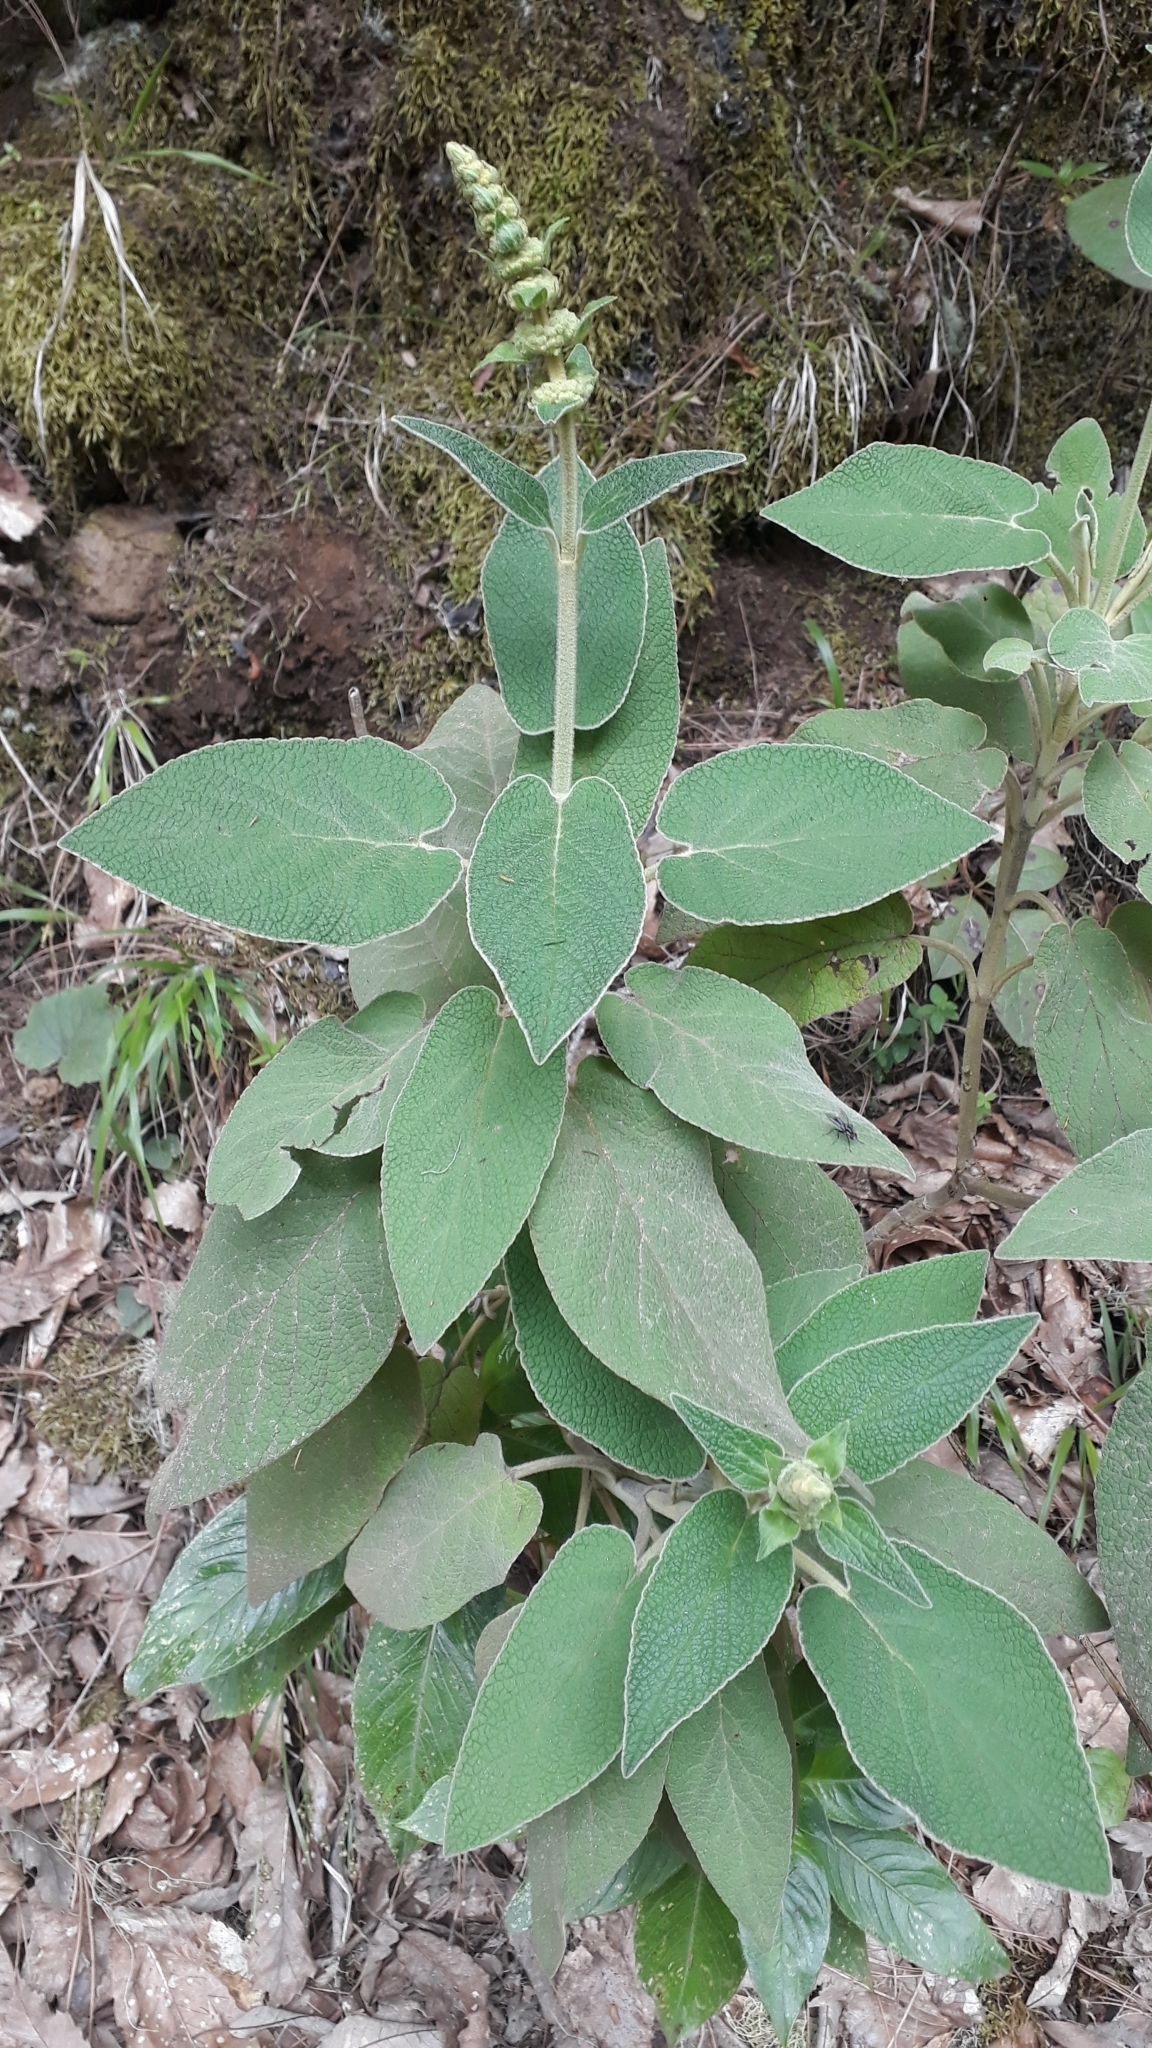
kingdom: Plantae
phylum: Tracheophyta
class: Magnoliopsida
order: Lamiales
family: Lamiaceae
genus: Sideritis
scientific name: Sideritis canariensis
